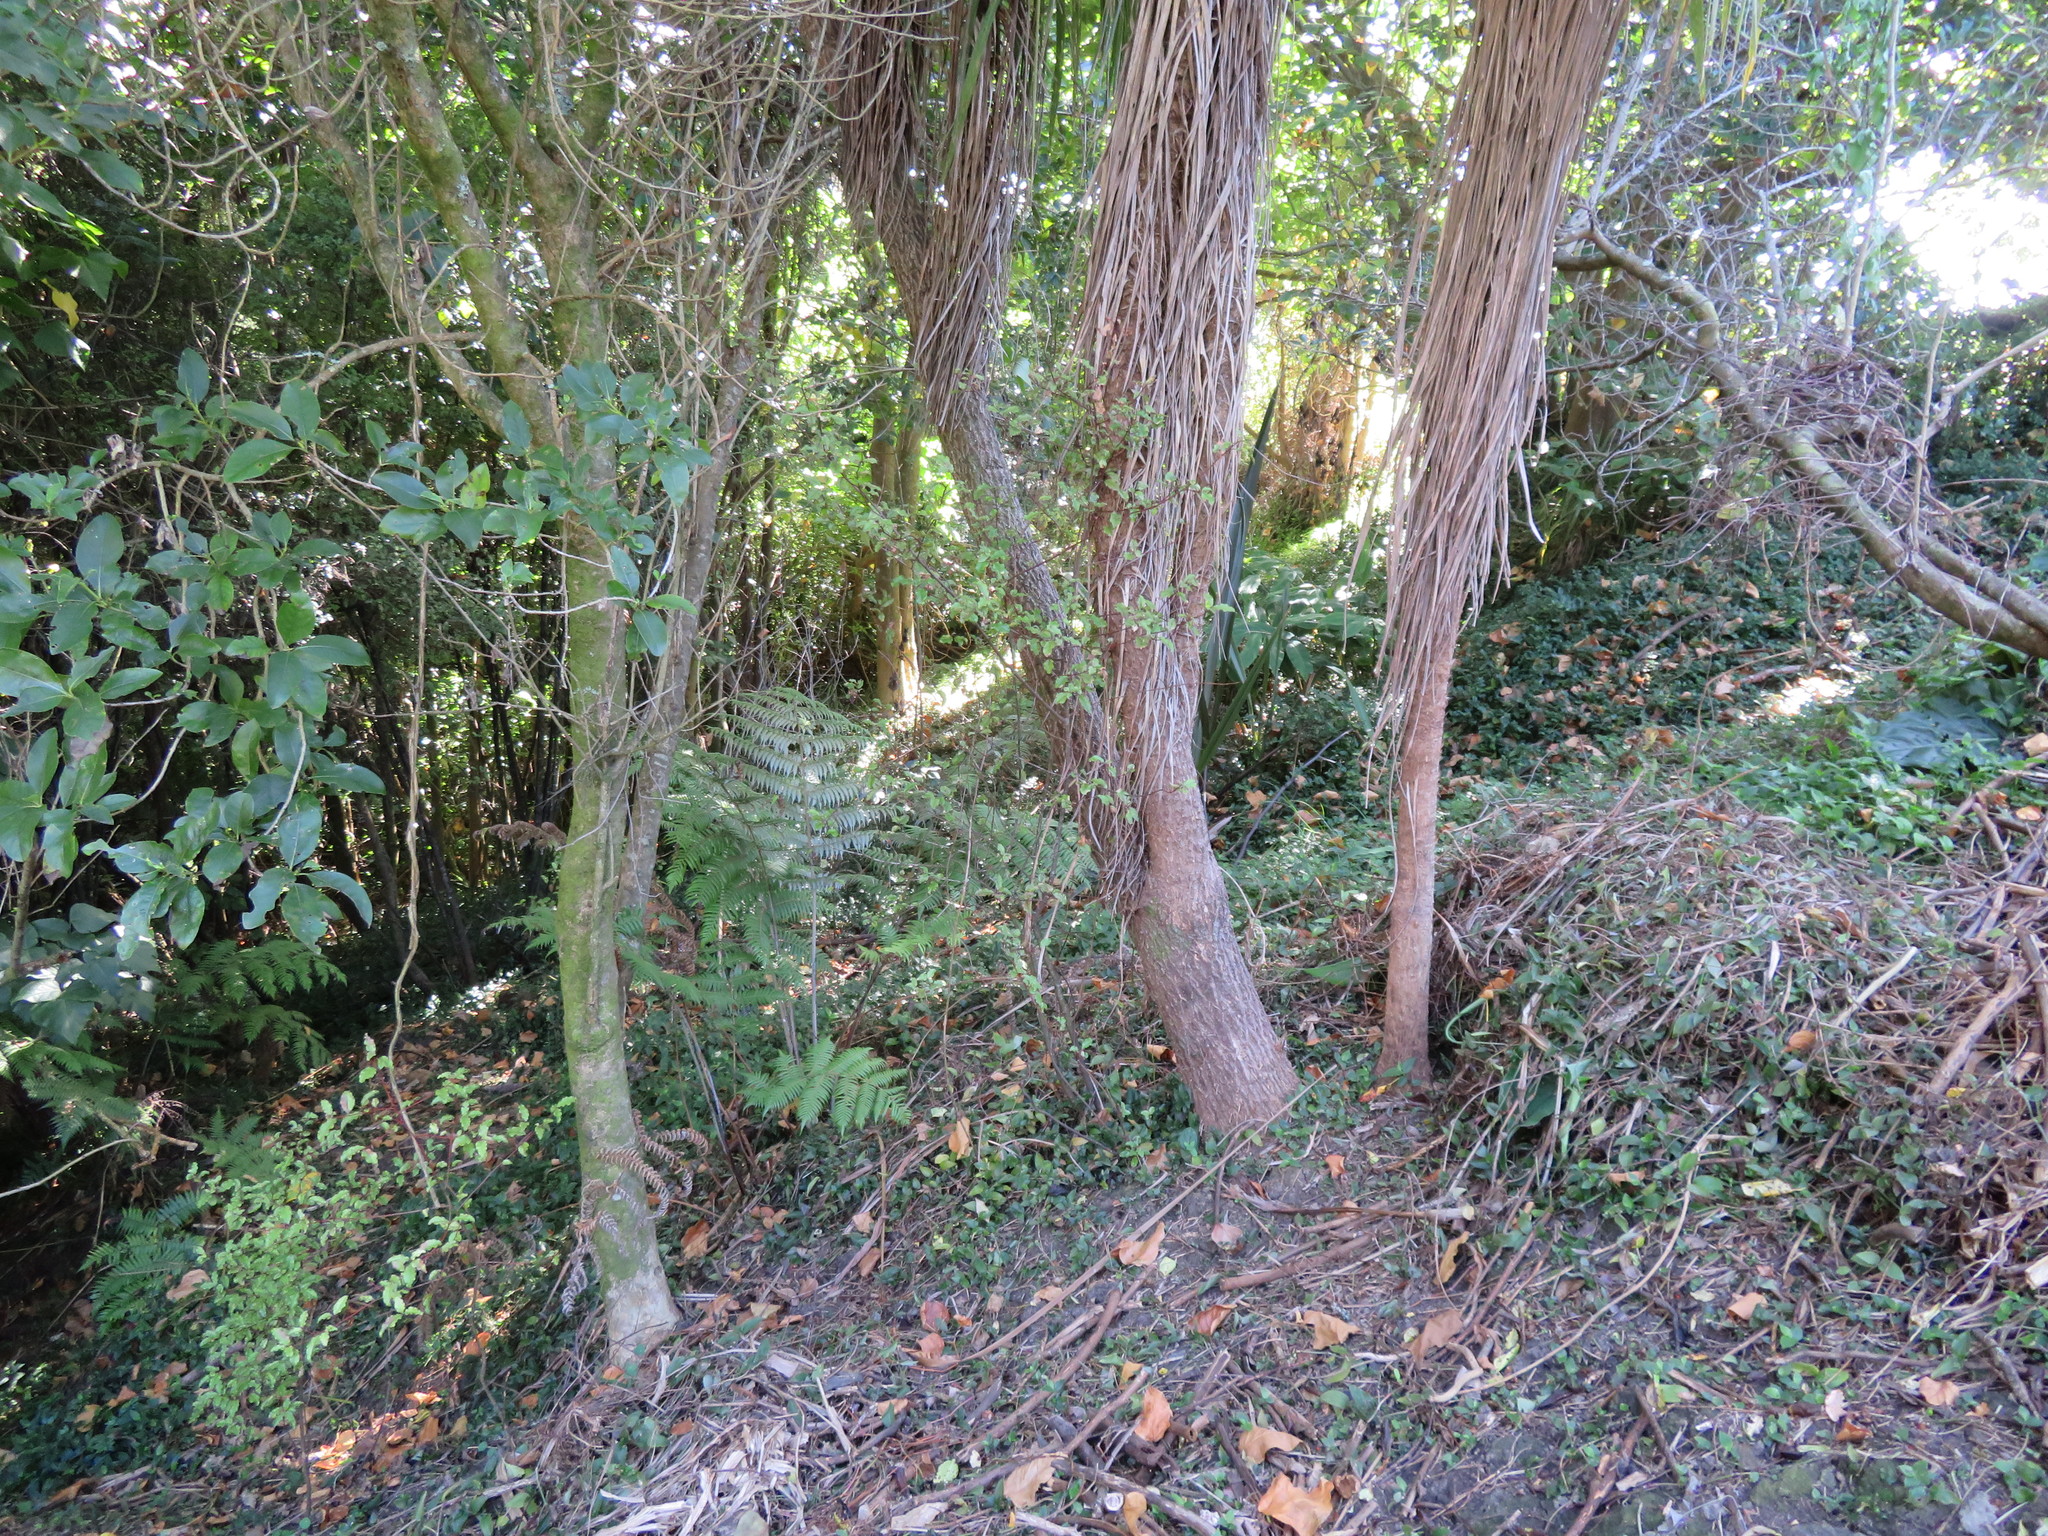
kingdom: Plantae
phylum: Tracheophyta
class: Liliopsida
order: Commelinales
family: Commelinaceae
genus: Tradescantia
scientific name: Tradescantia fluminensis
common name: Wandering-jew
